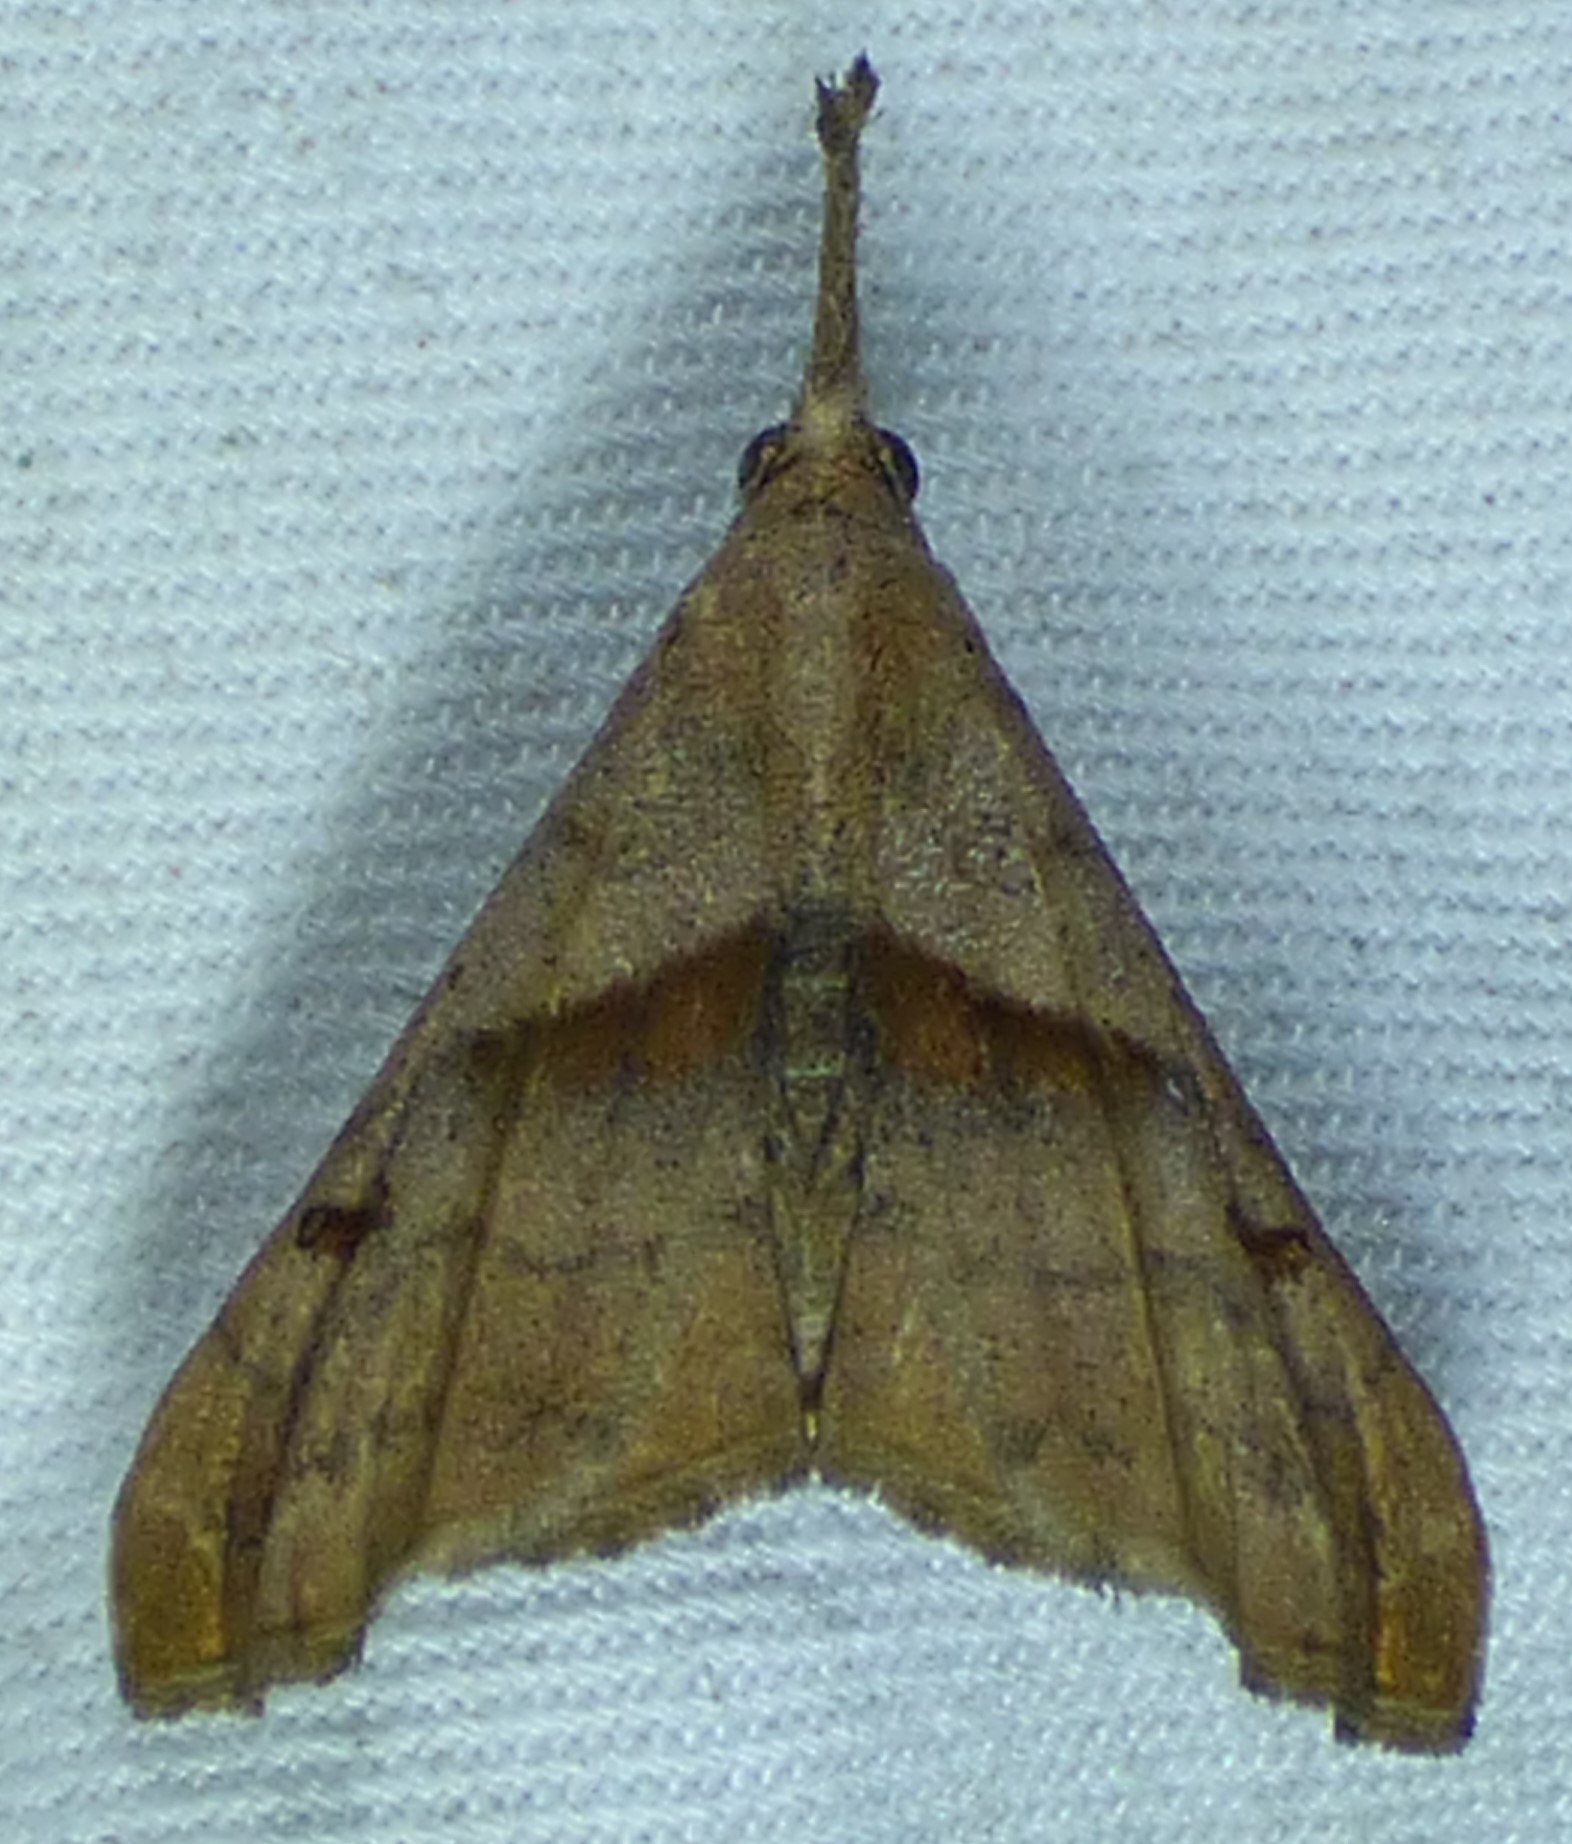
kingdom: Animalia
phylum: Arthropoda
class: Insecta
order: Lepidoptera
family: Erebidae
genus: Palthis
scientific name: Palthis angulalis
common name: Dark-spotted palthis moth
